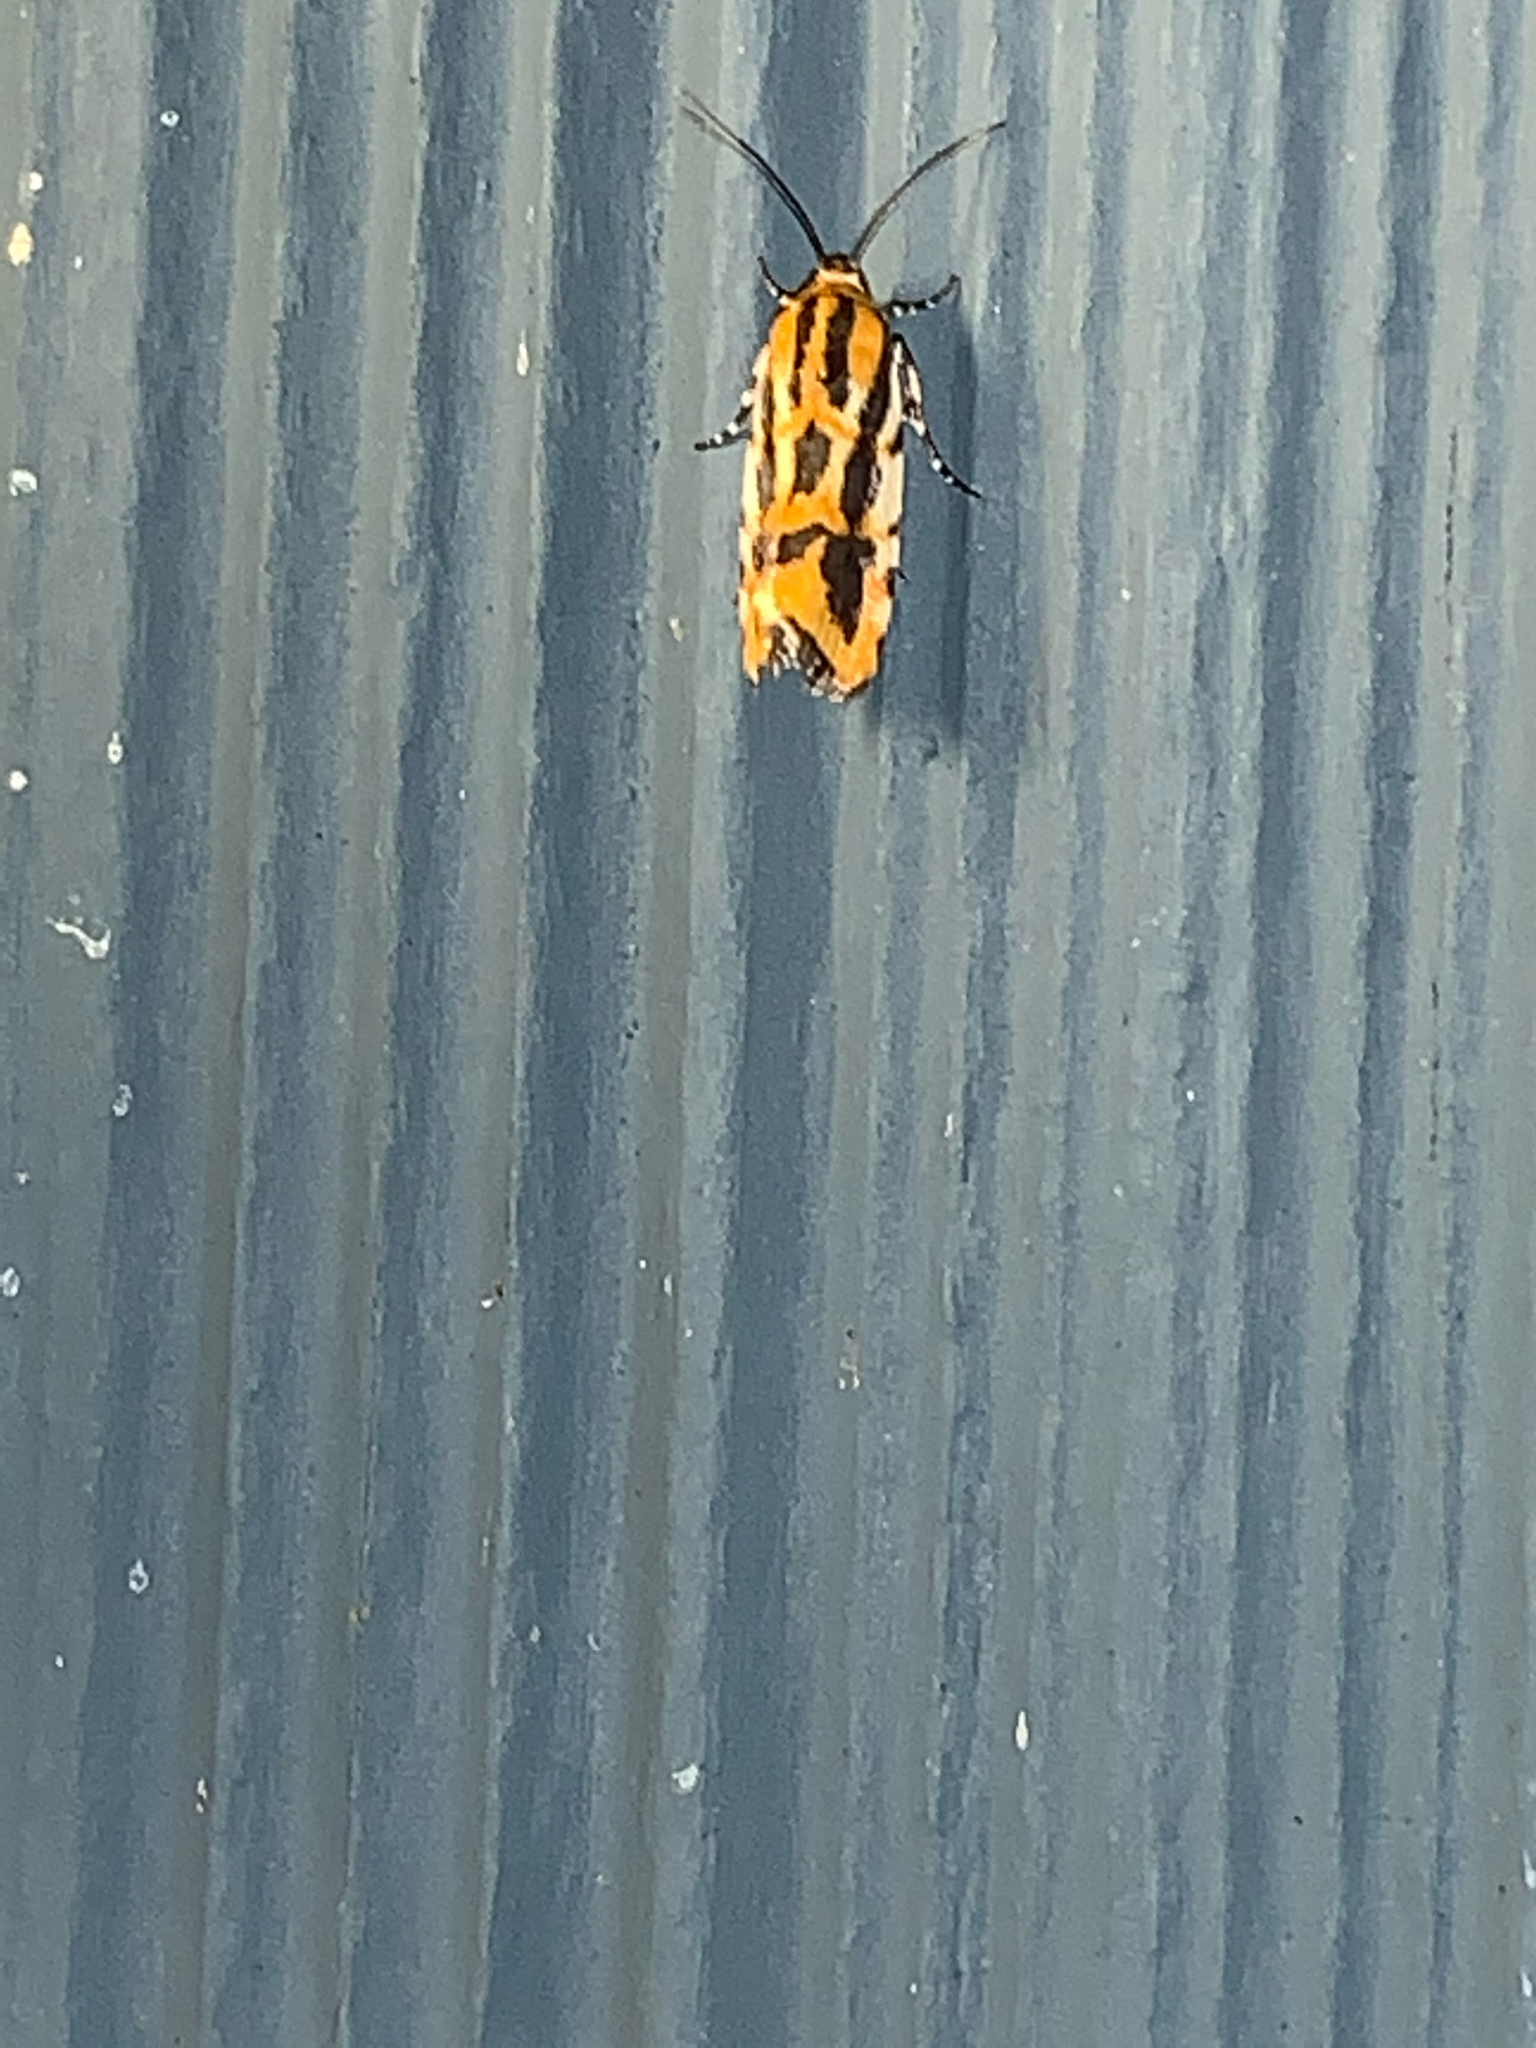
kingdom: Animalia
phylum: Arthropoda
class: Insecta
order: Lepidoptera
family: Noctuidae
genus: Acontia
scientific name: Acontia leo
